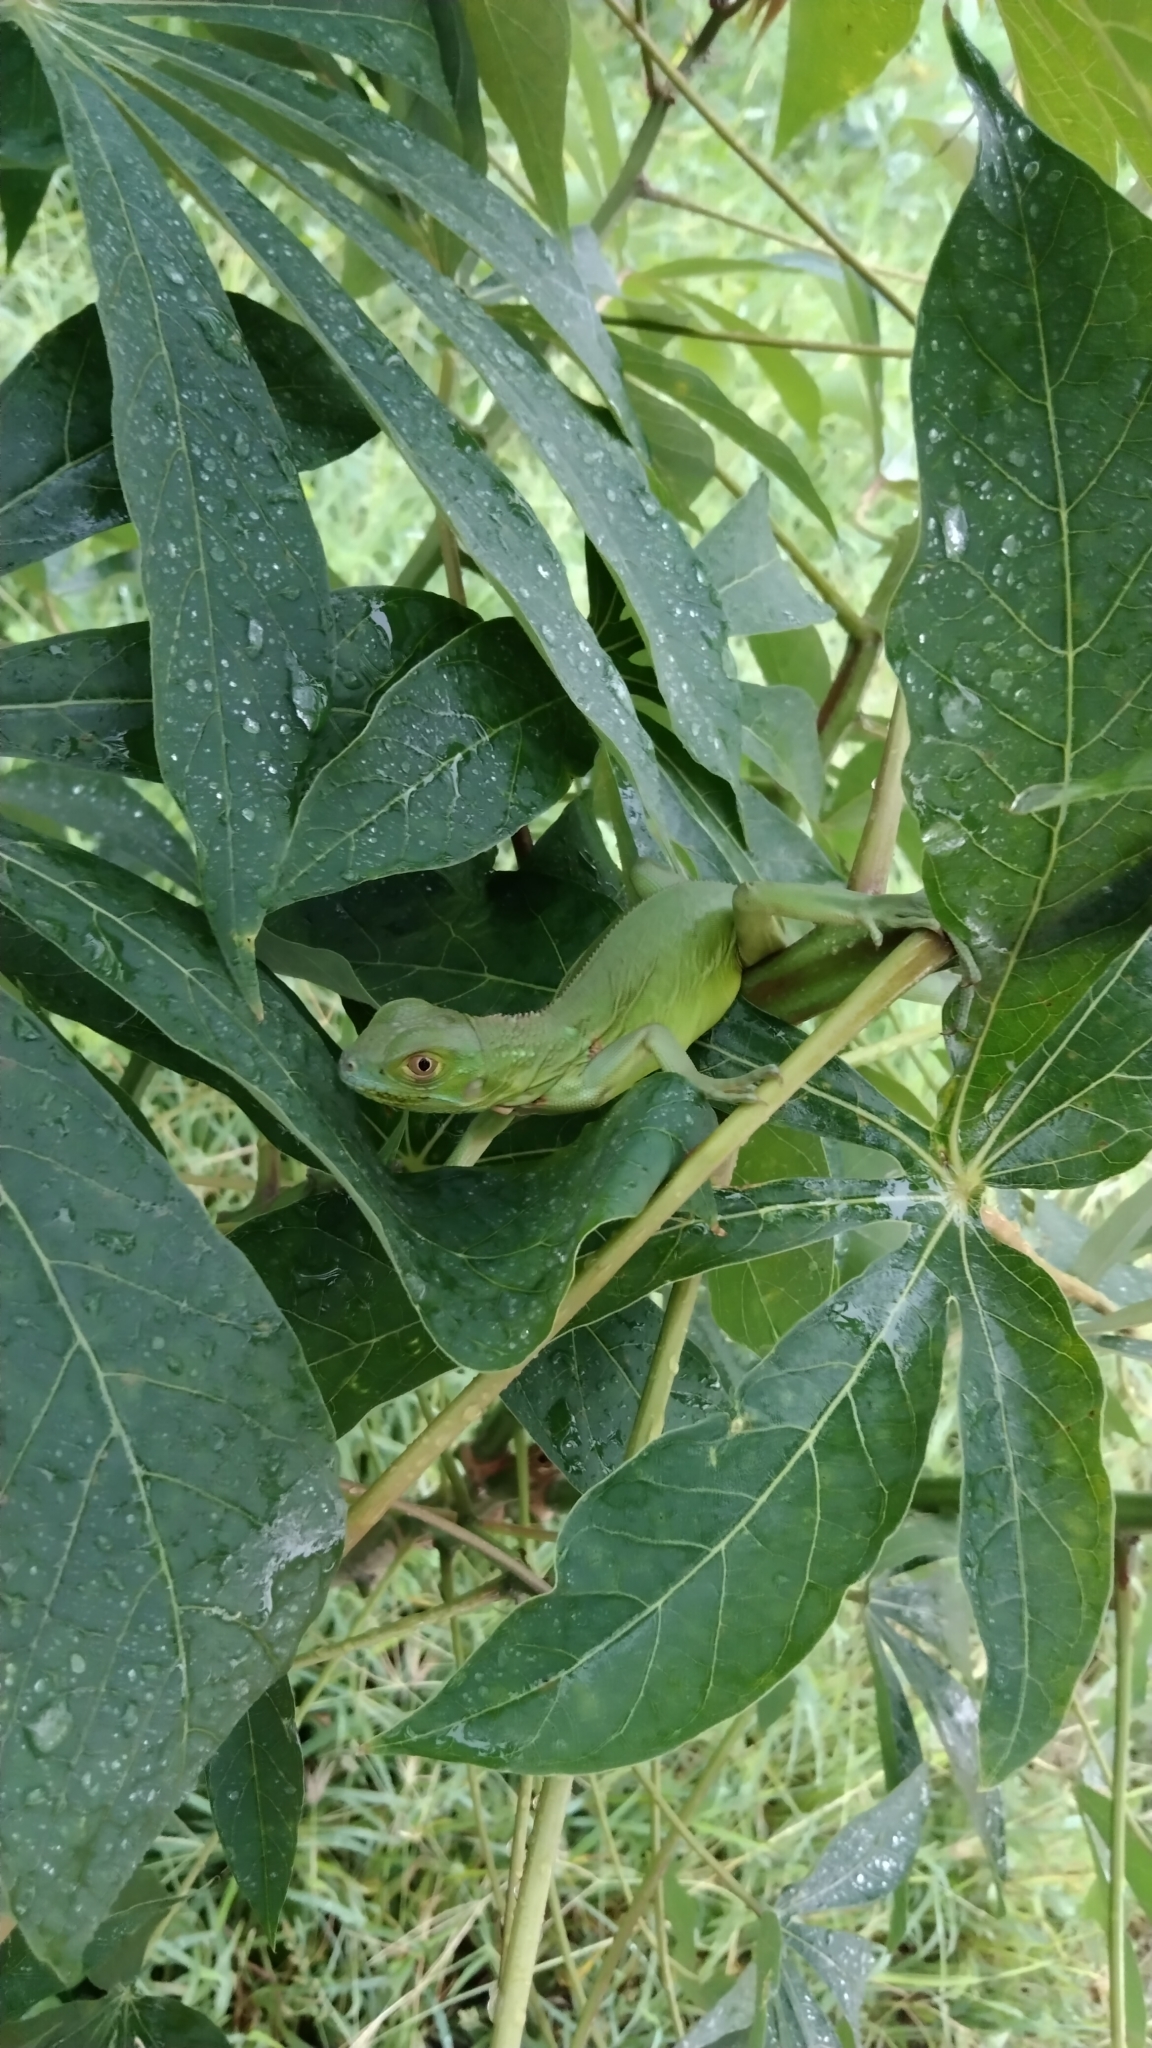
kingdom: Animalia
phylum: Chordata
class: Squamata
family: Iguanidae
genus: Iguana
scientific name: Iguana iguana
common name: Green iguana
